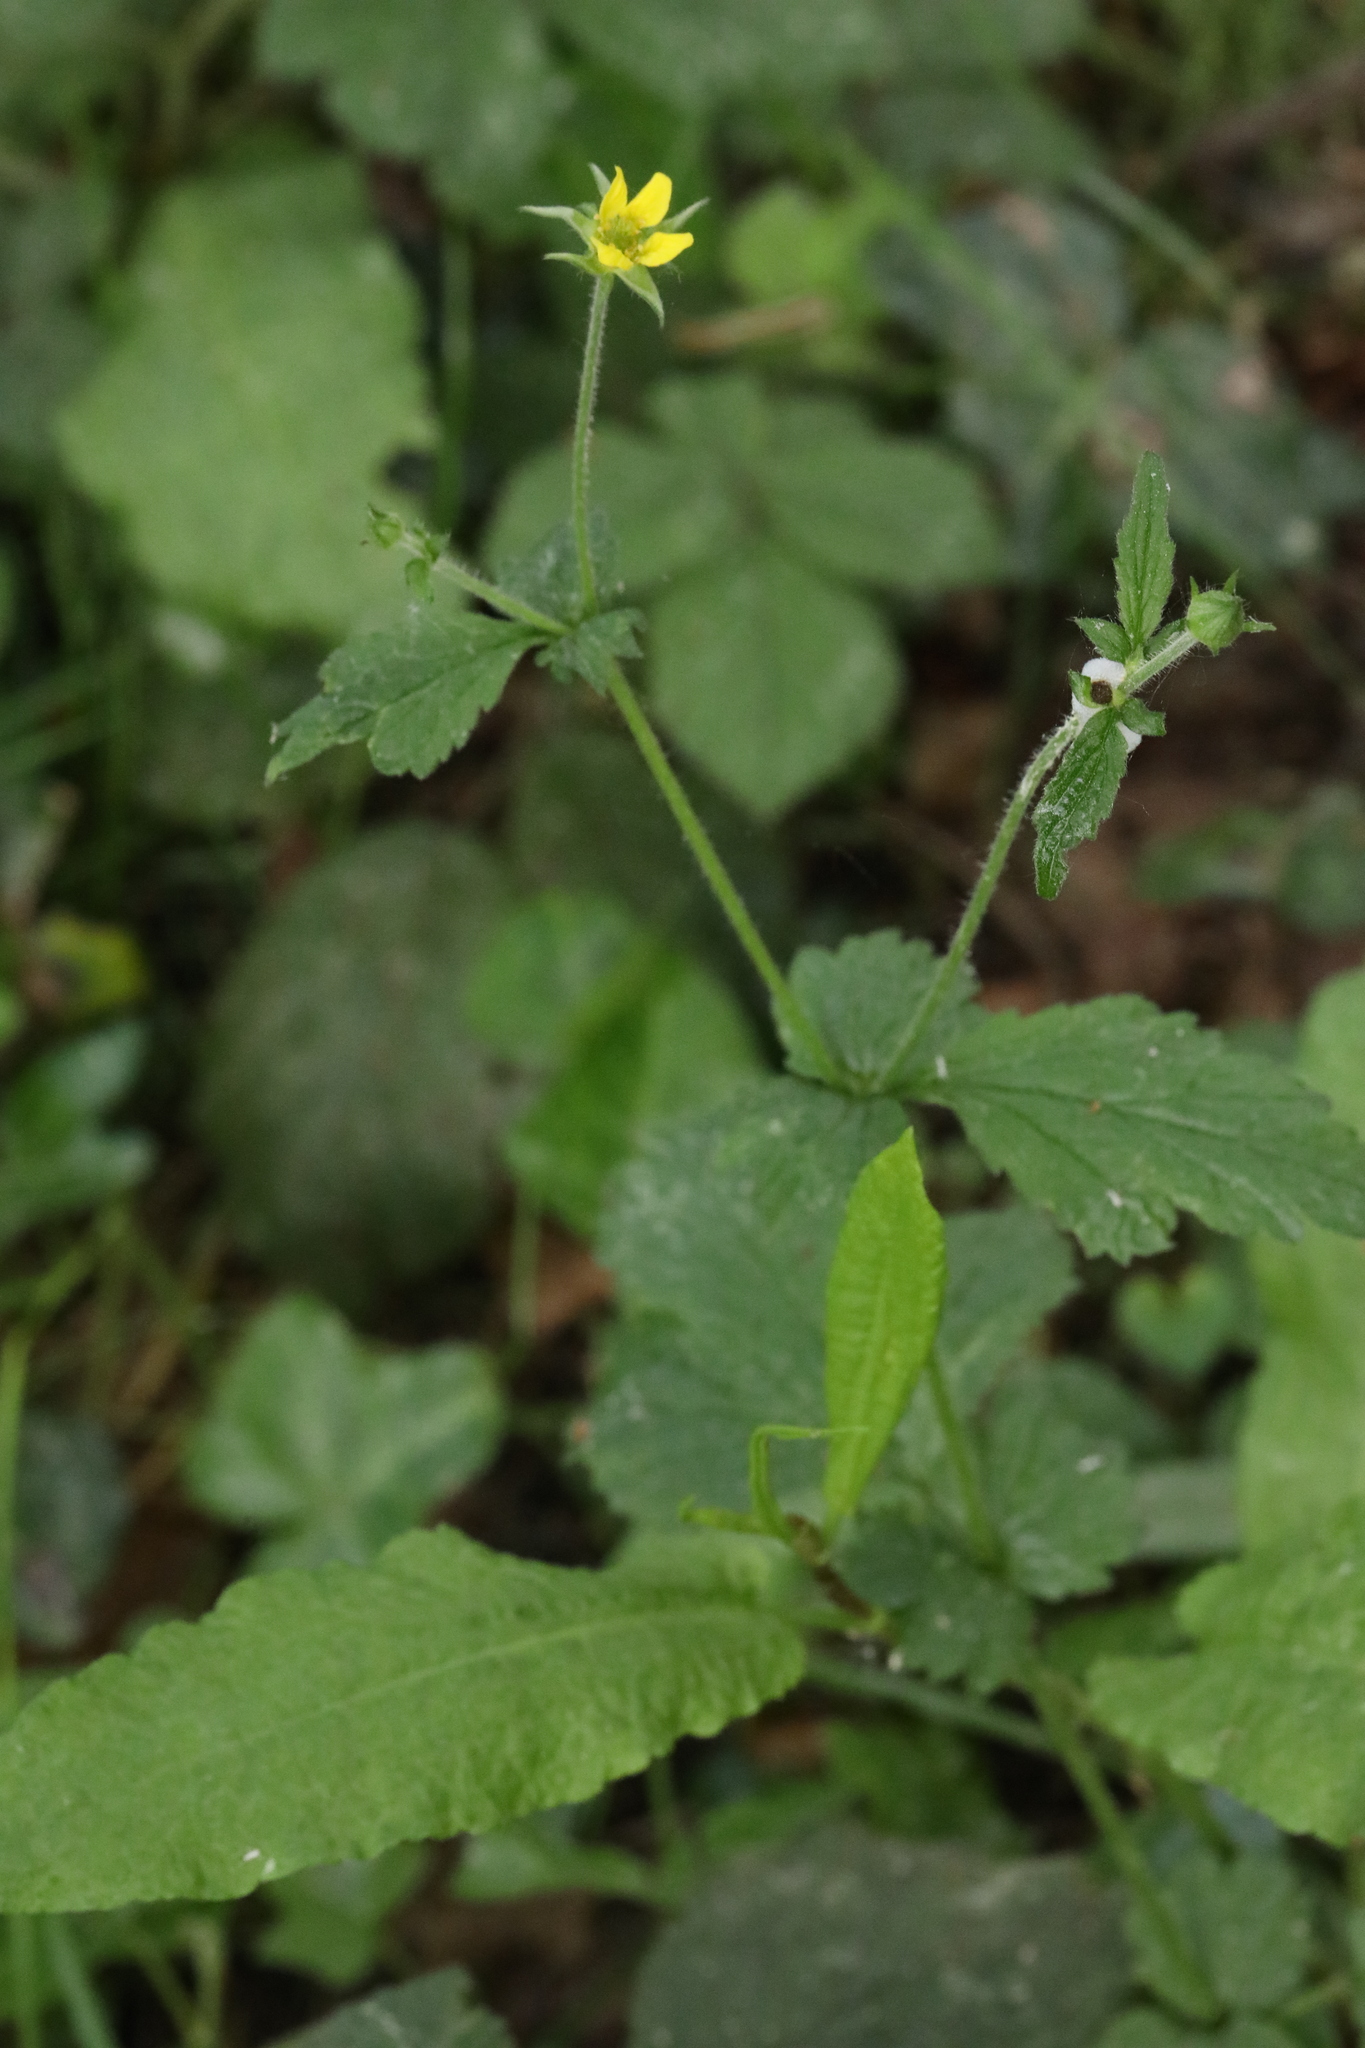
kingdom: Plantae
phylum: Tracheophyta
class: Magnoliopsida
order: Rosales
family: Rosaceae
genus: Geum
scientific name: Geum urbanum
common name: Wood avens
